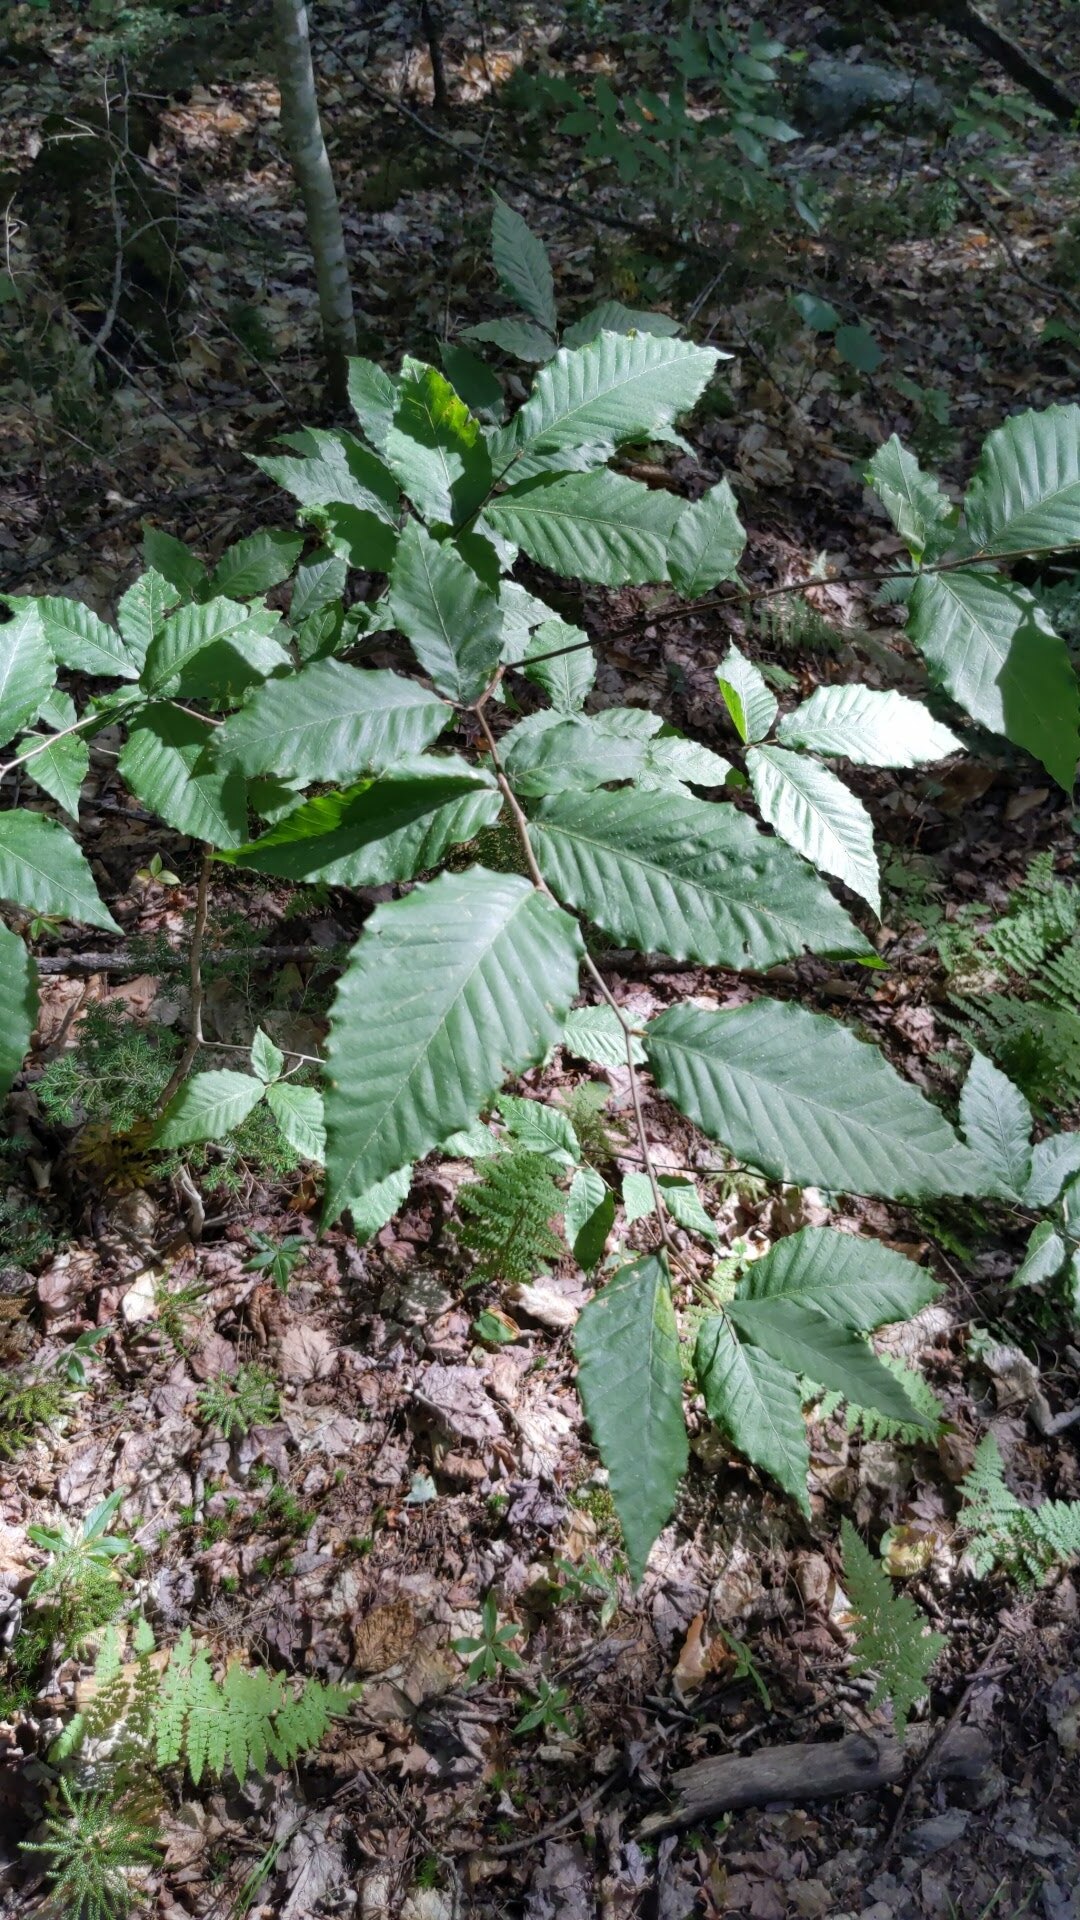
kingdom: Plantae
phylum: Tracheophyta
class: Magnoliopsida
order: Fagales
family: Fagaceae
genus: Fagus
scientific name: Fagus grandifolia
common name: American beech
